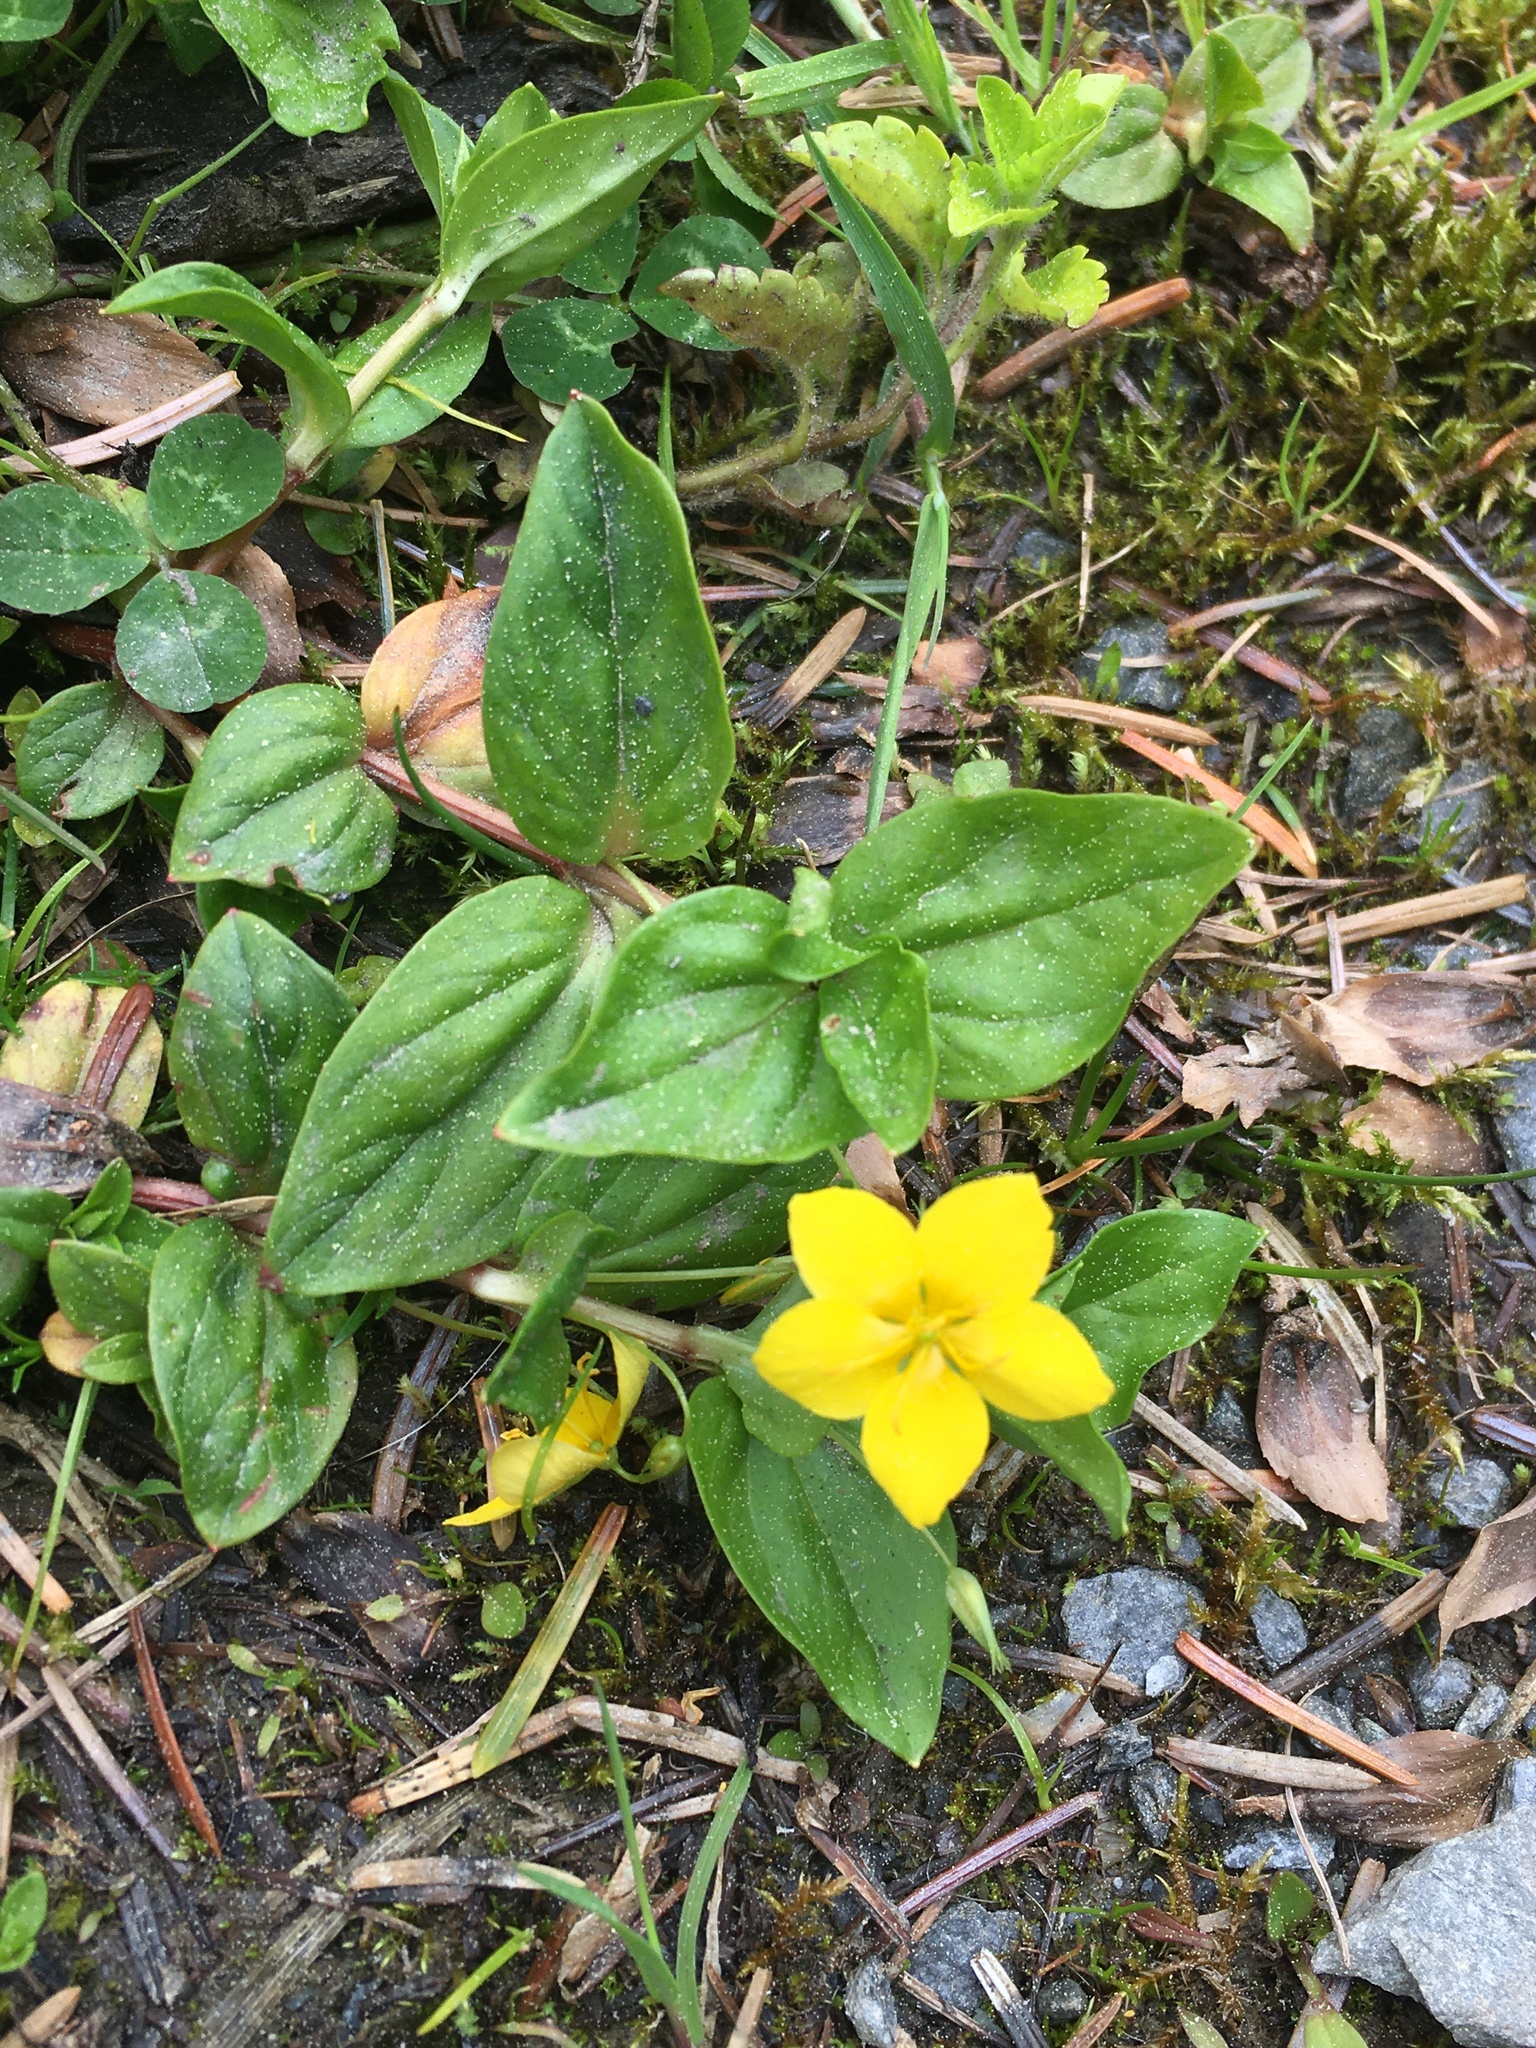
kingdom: Plantae
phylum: Tracheophyta
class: Magnoliopsida
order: Ericales
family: Primulaceae
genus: Lysimachia
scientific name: Lysimachia nemorum
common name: Yellow pimpernel
